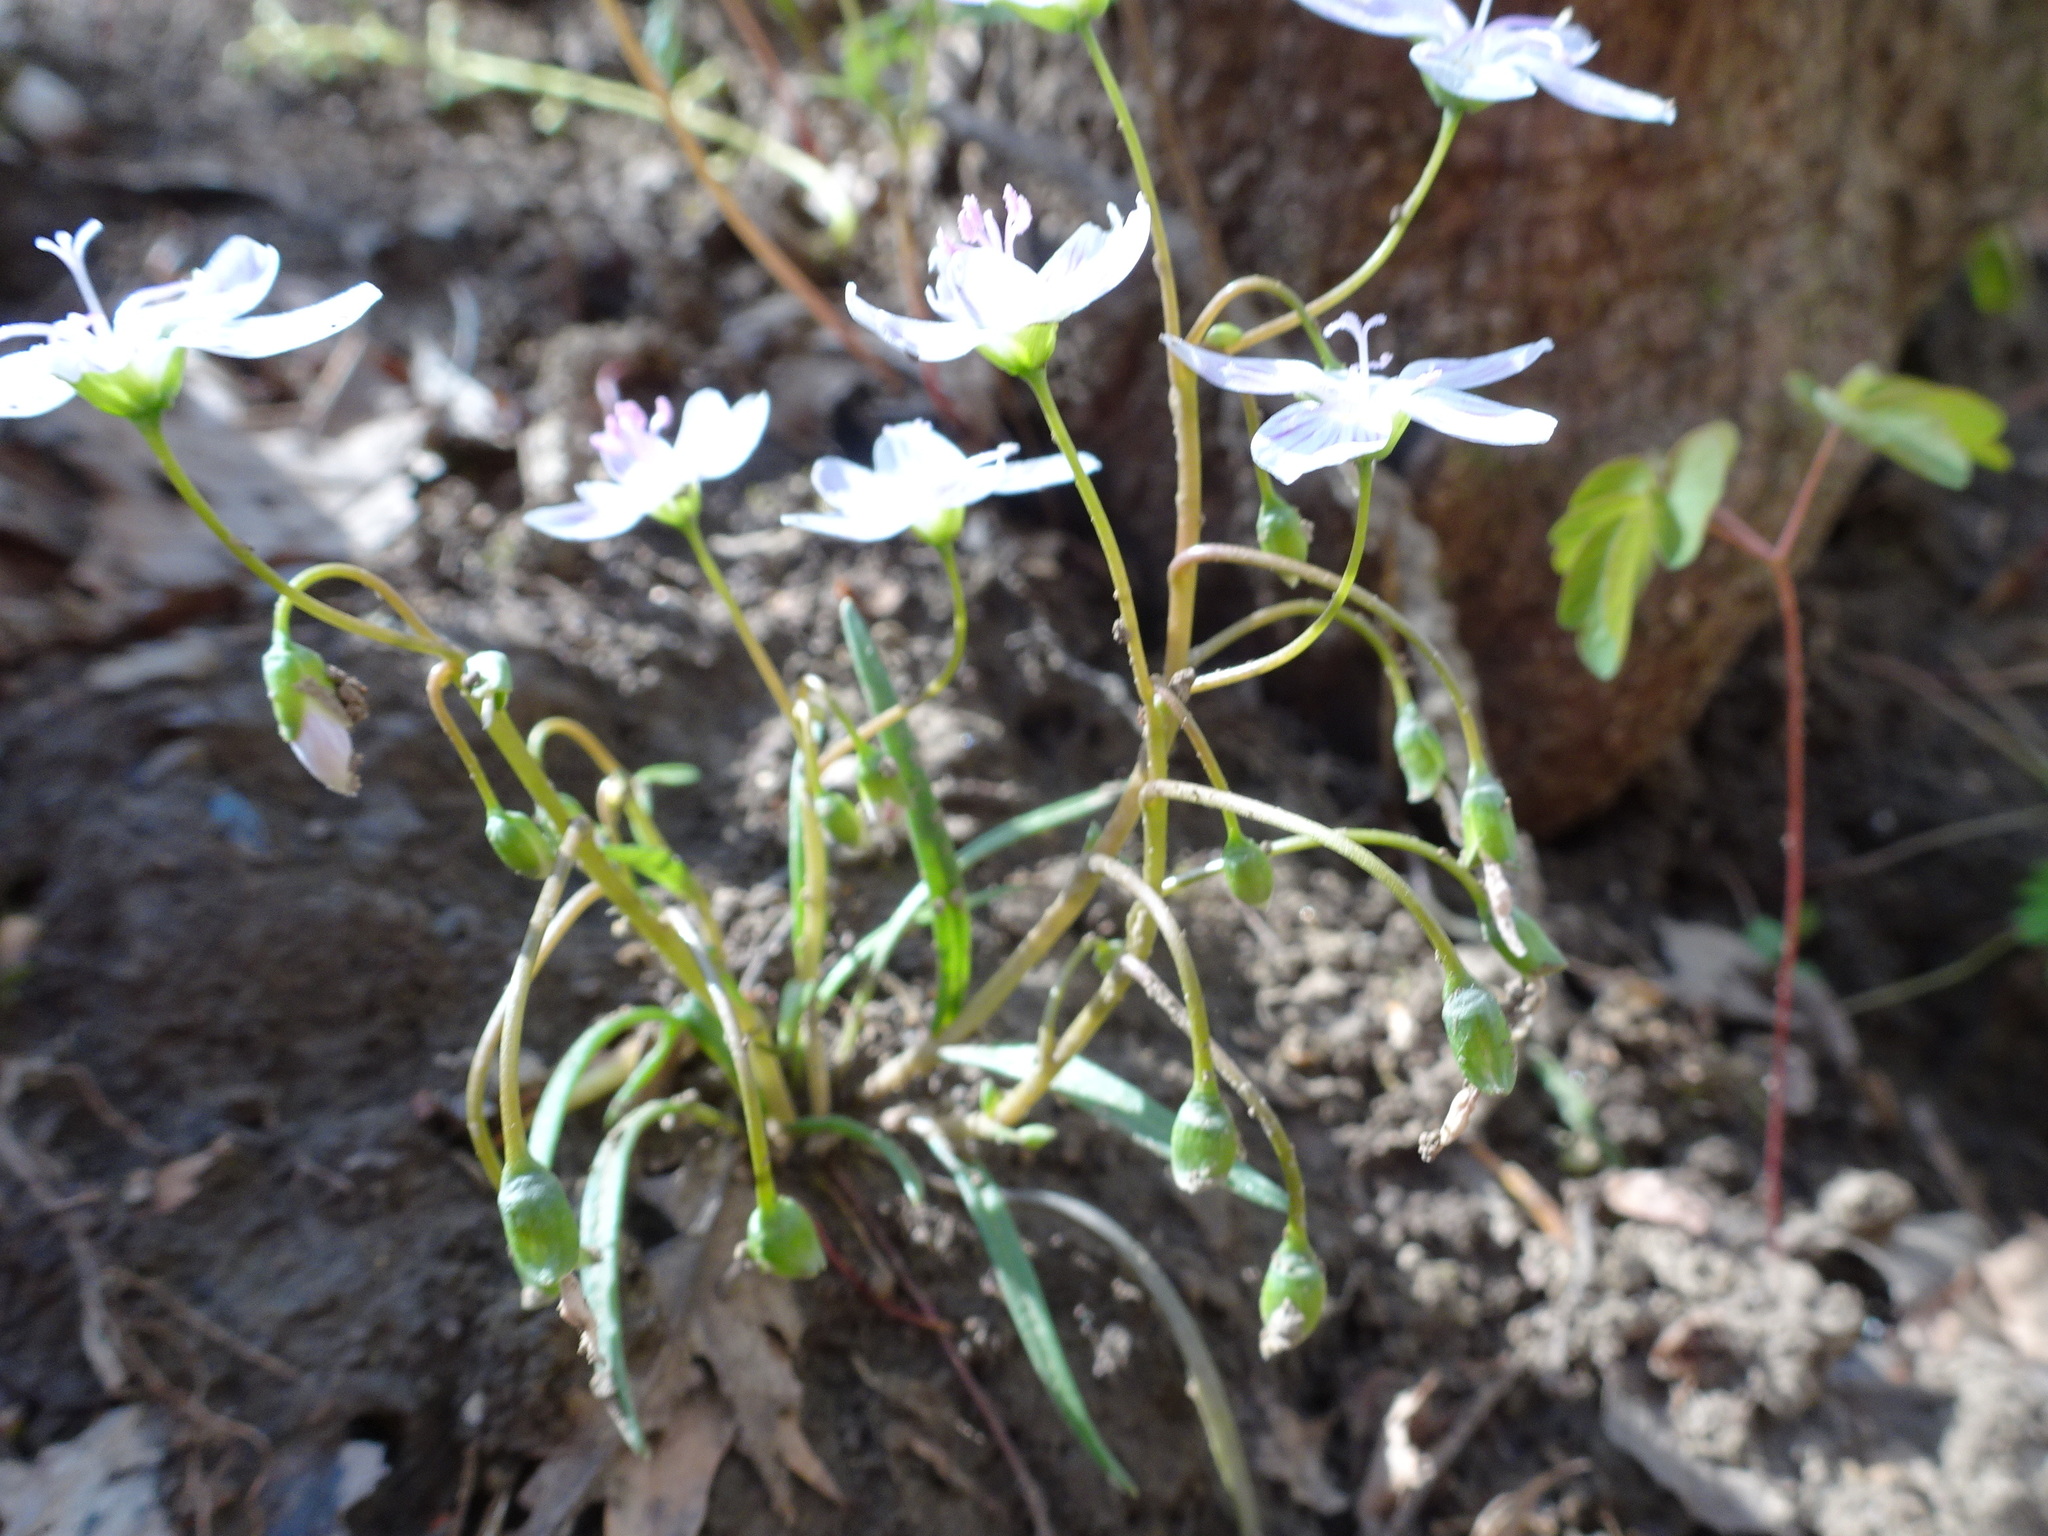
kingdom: Plantae
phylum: Tracheophyta
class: Magnoliopsida
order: Caryophyllales
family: Montiaceae
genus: Claytonia
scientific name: Claytonia virginica
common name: Virginia springbeauty
